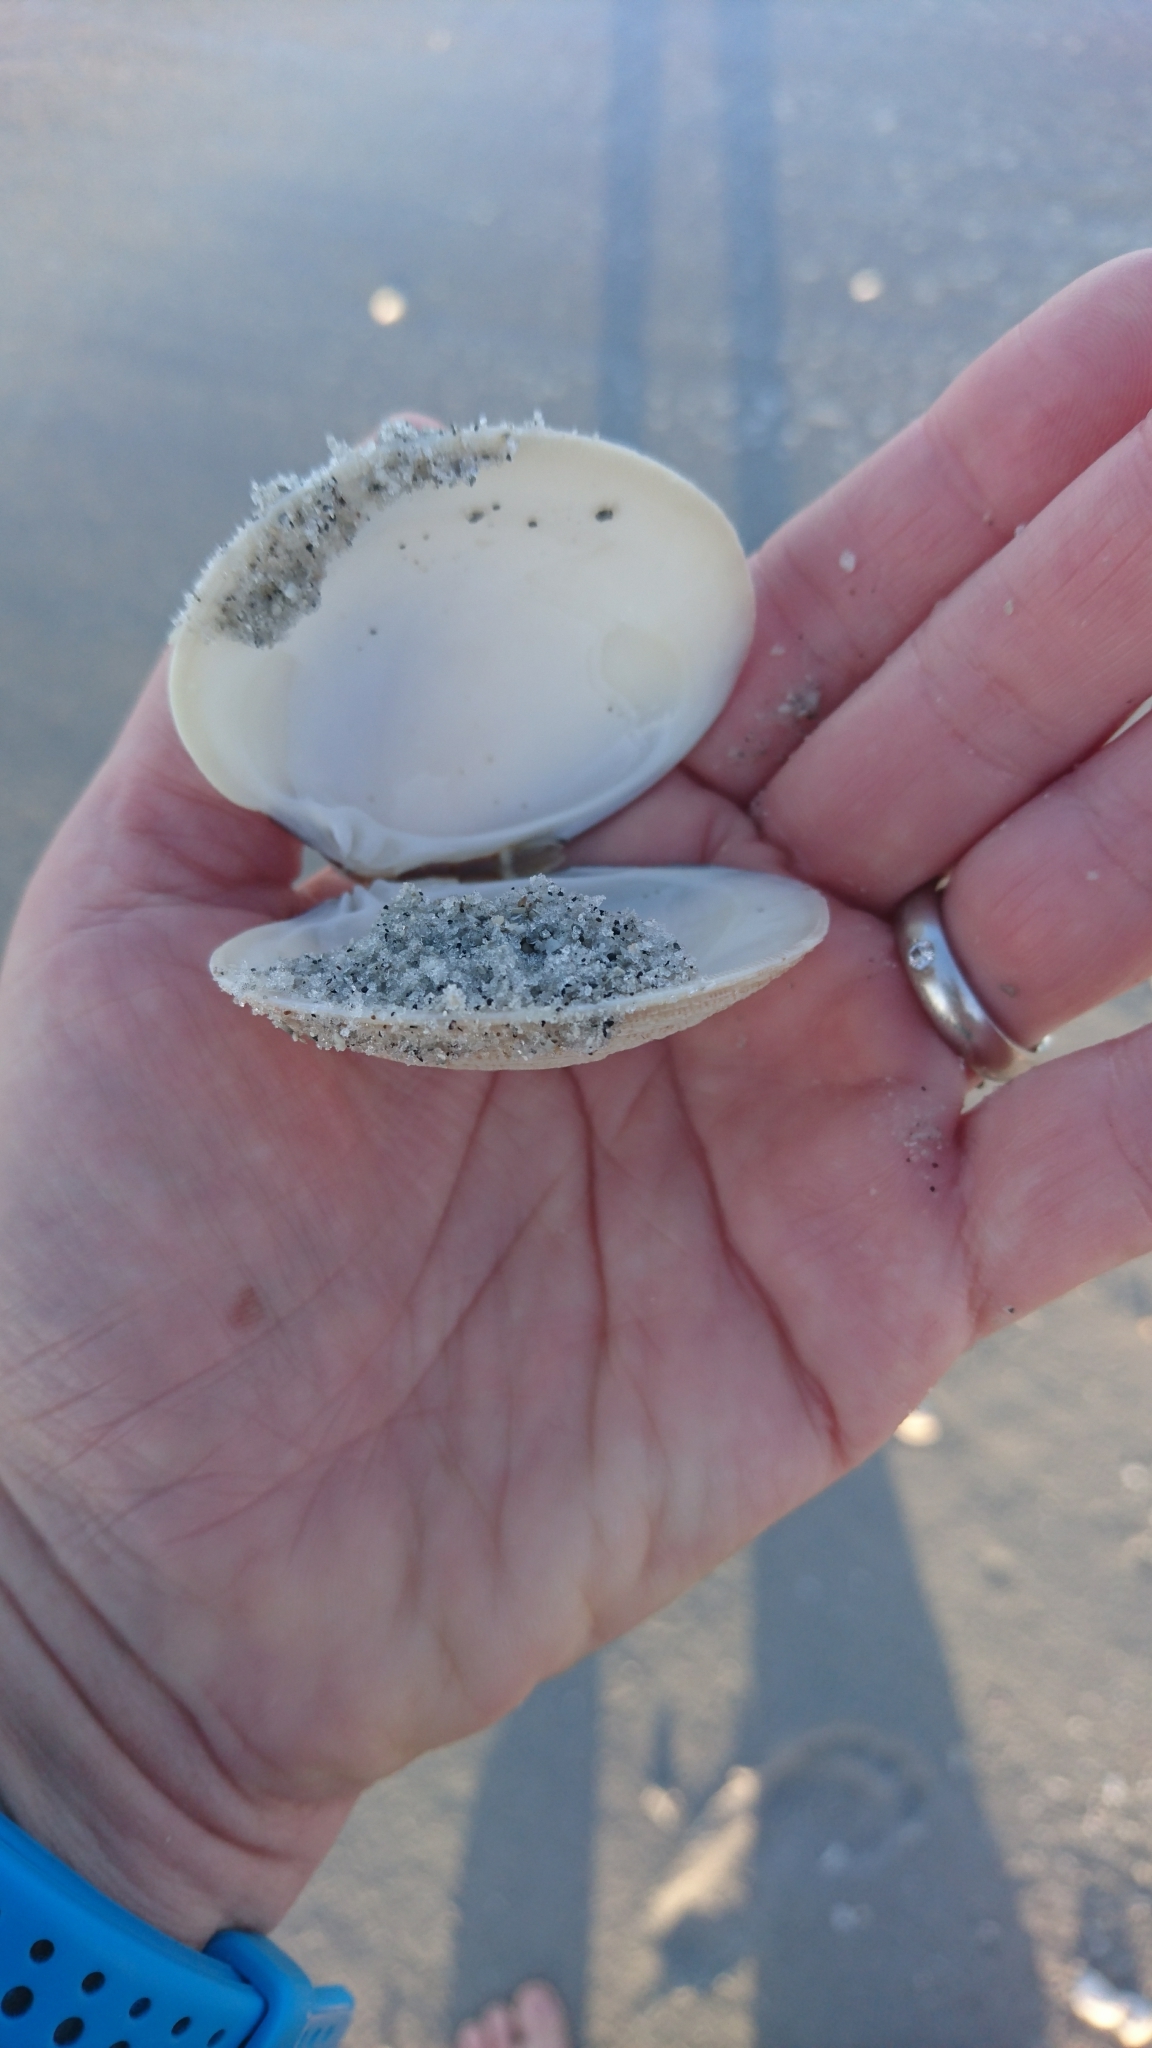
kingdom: Animalia
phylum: Mollusca
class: Bivalvia
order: Venerida
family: Veneridae
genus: Mercenaria
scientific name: Mercenaria campechiensis
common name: Südliche quahog-muschel
